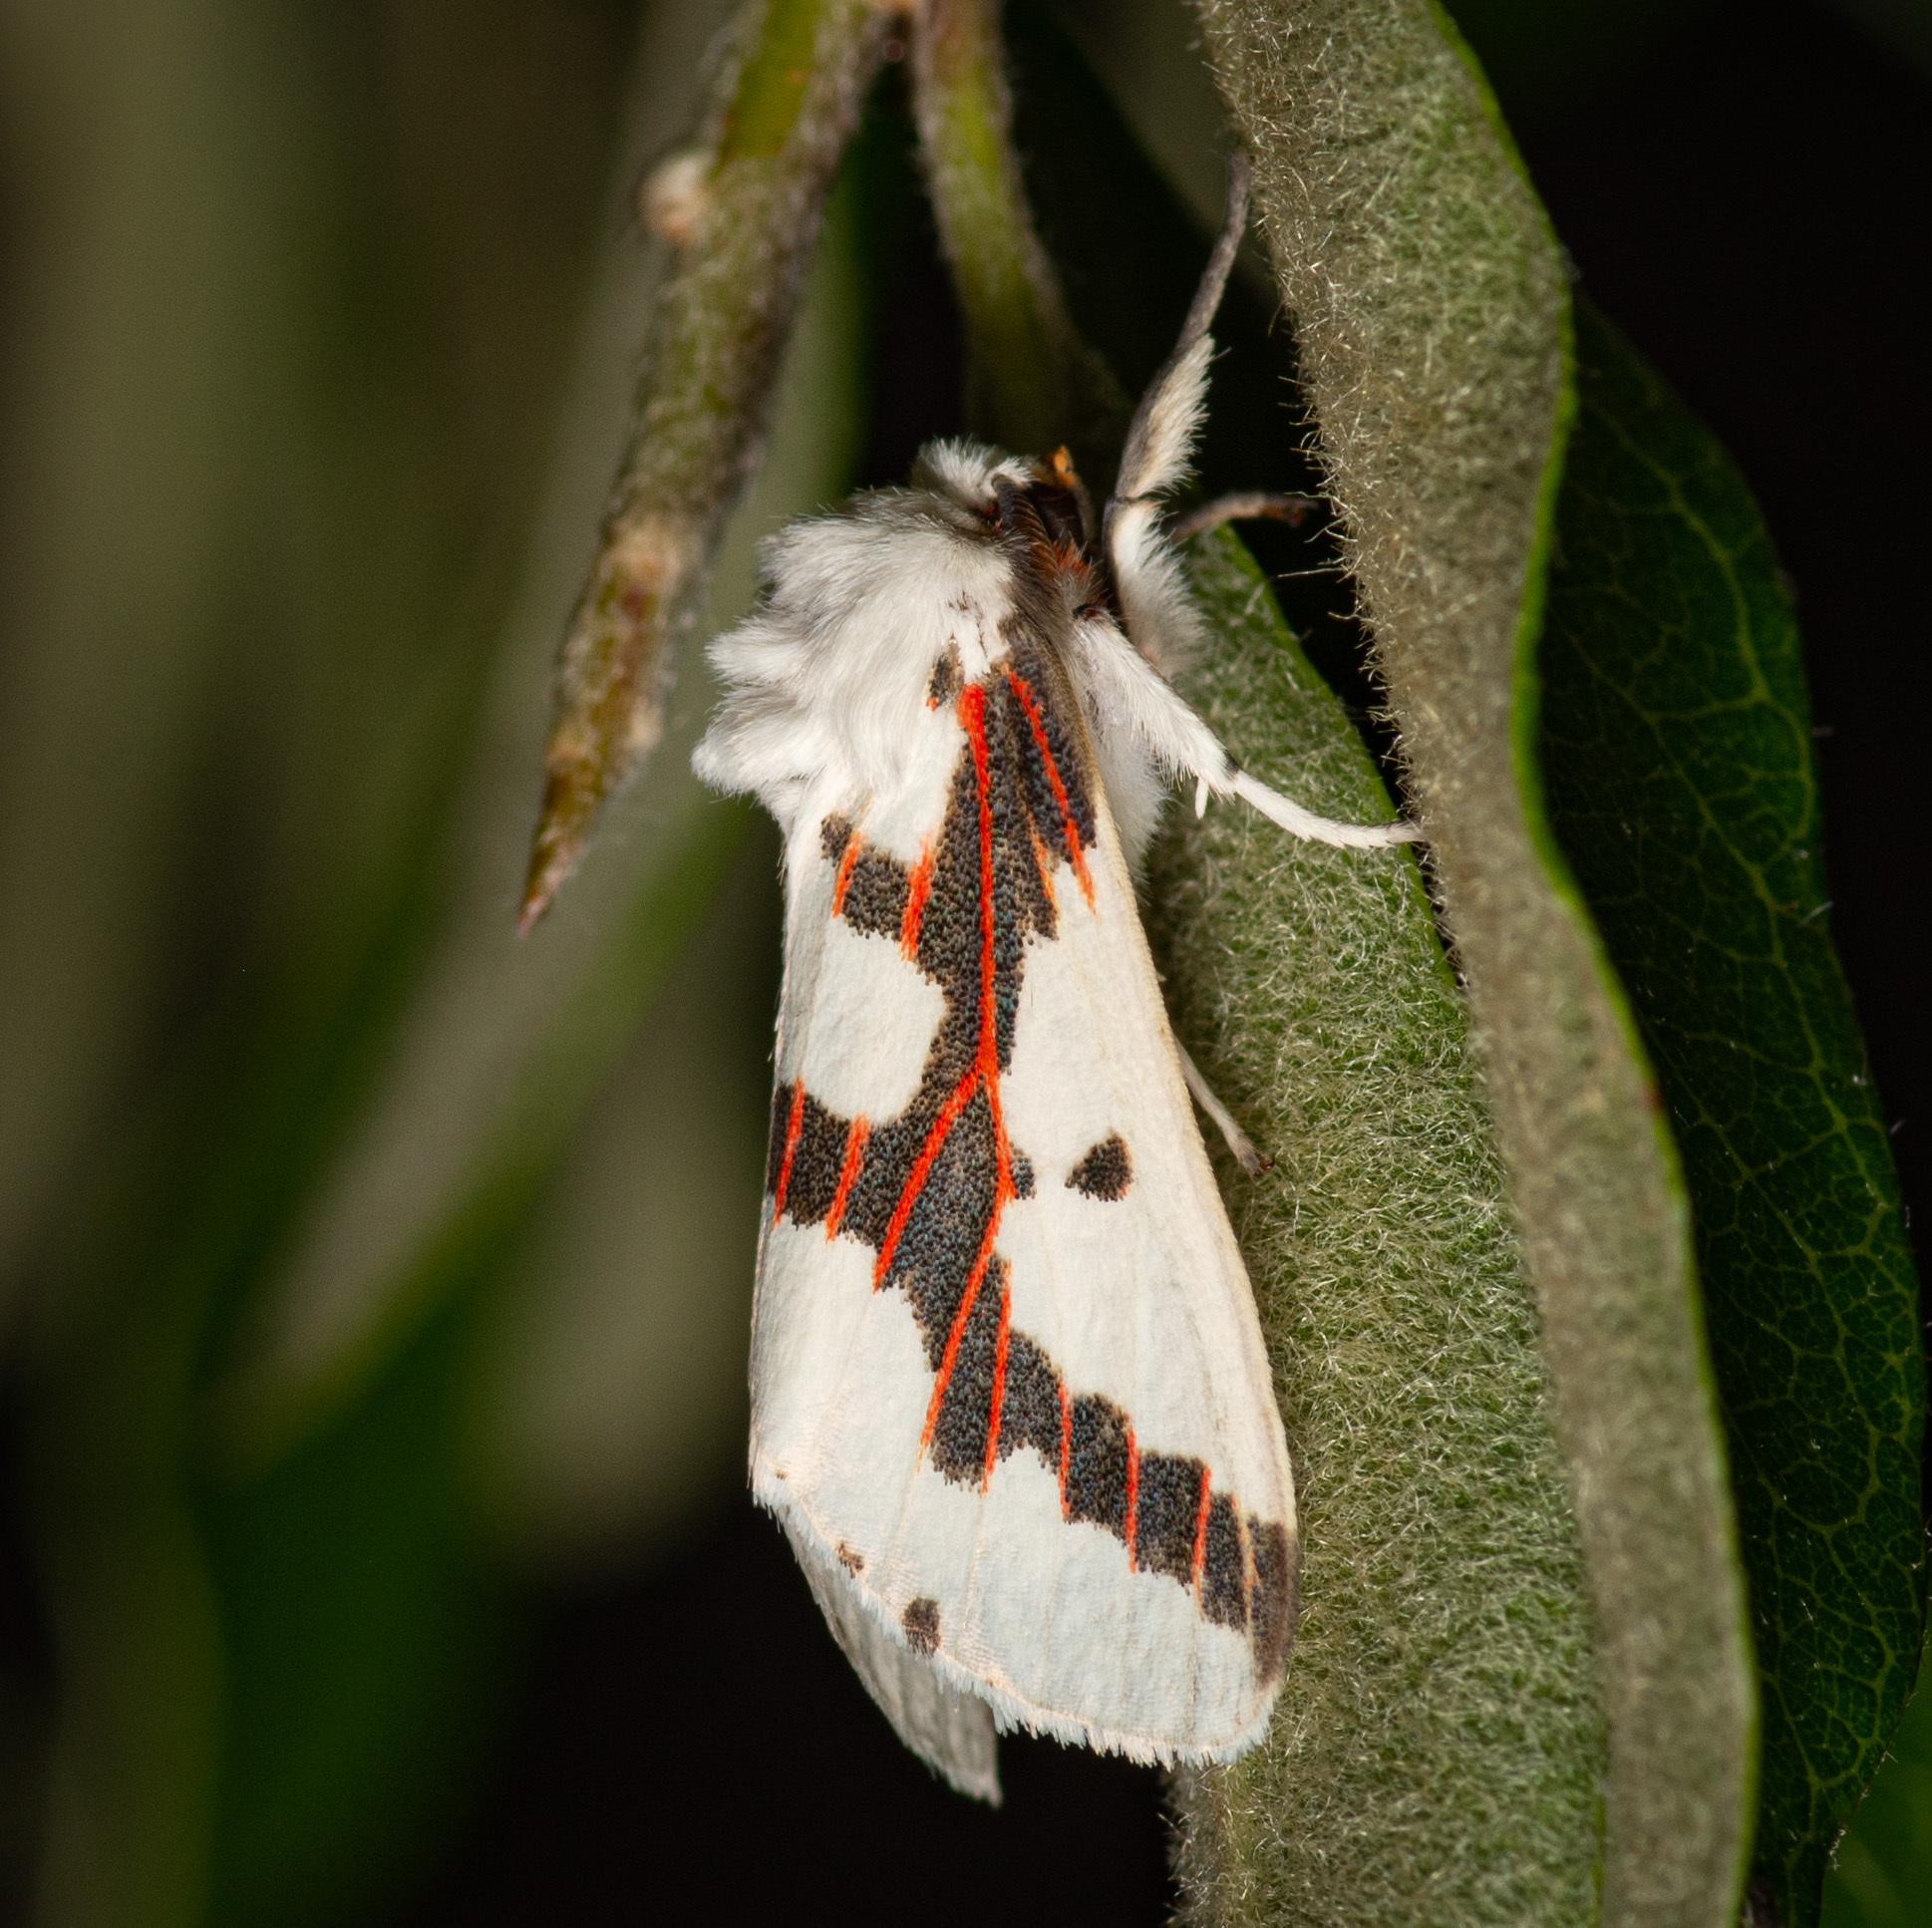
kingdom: Animalia
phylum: Arthropoda
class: Insecta
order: Lepidoptera
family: Erebidae
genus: Euerythra
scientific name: Euerythra phasma
